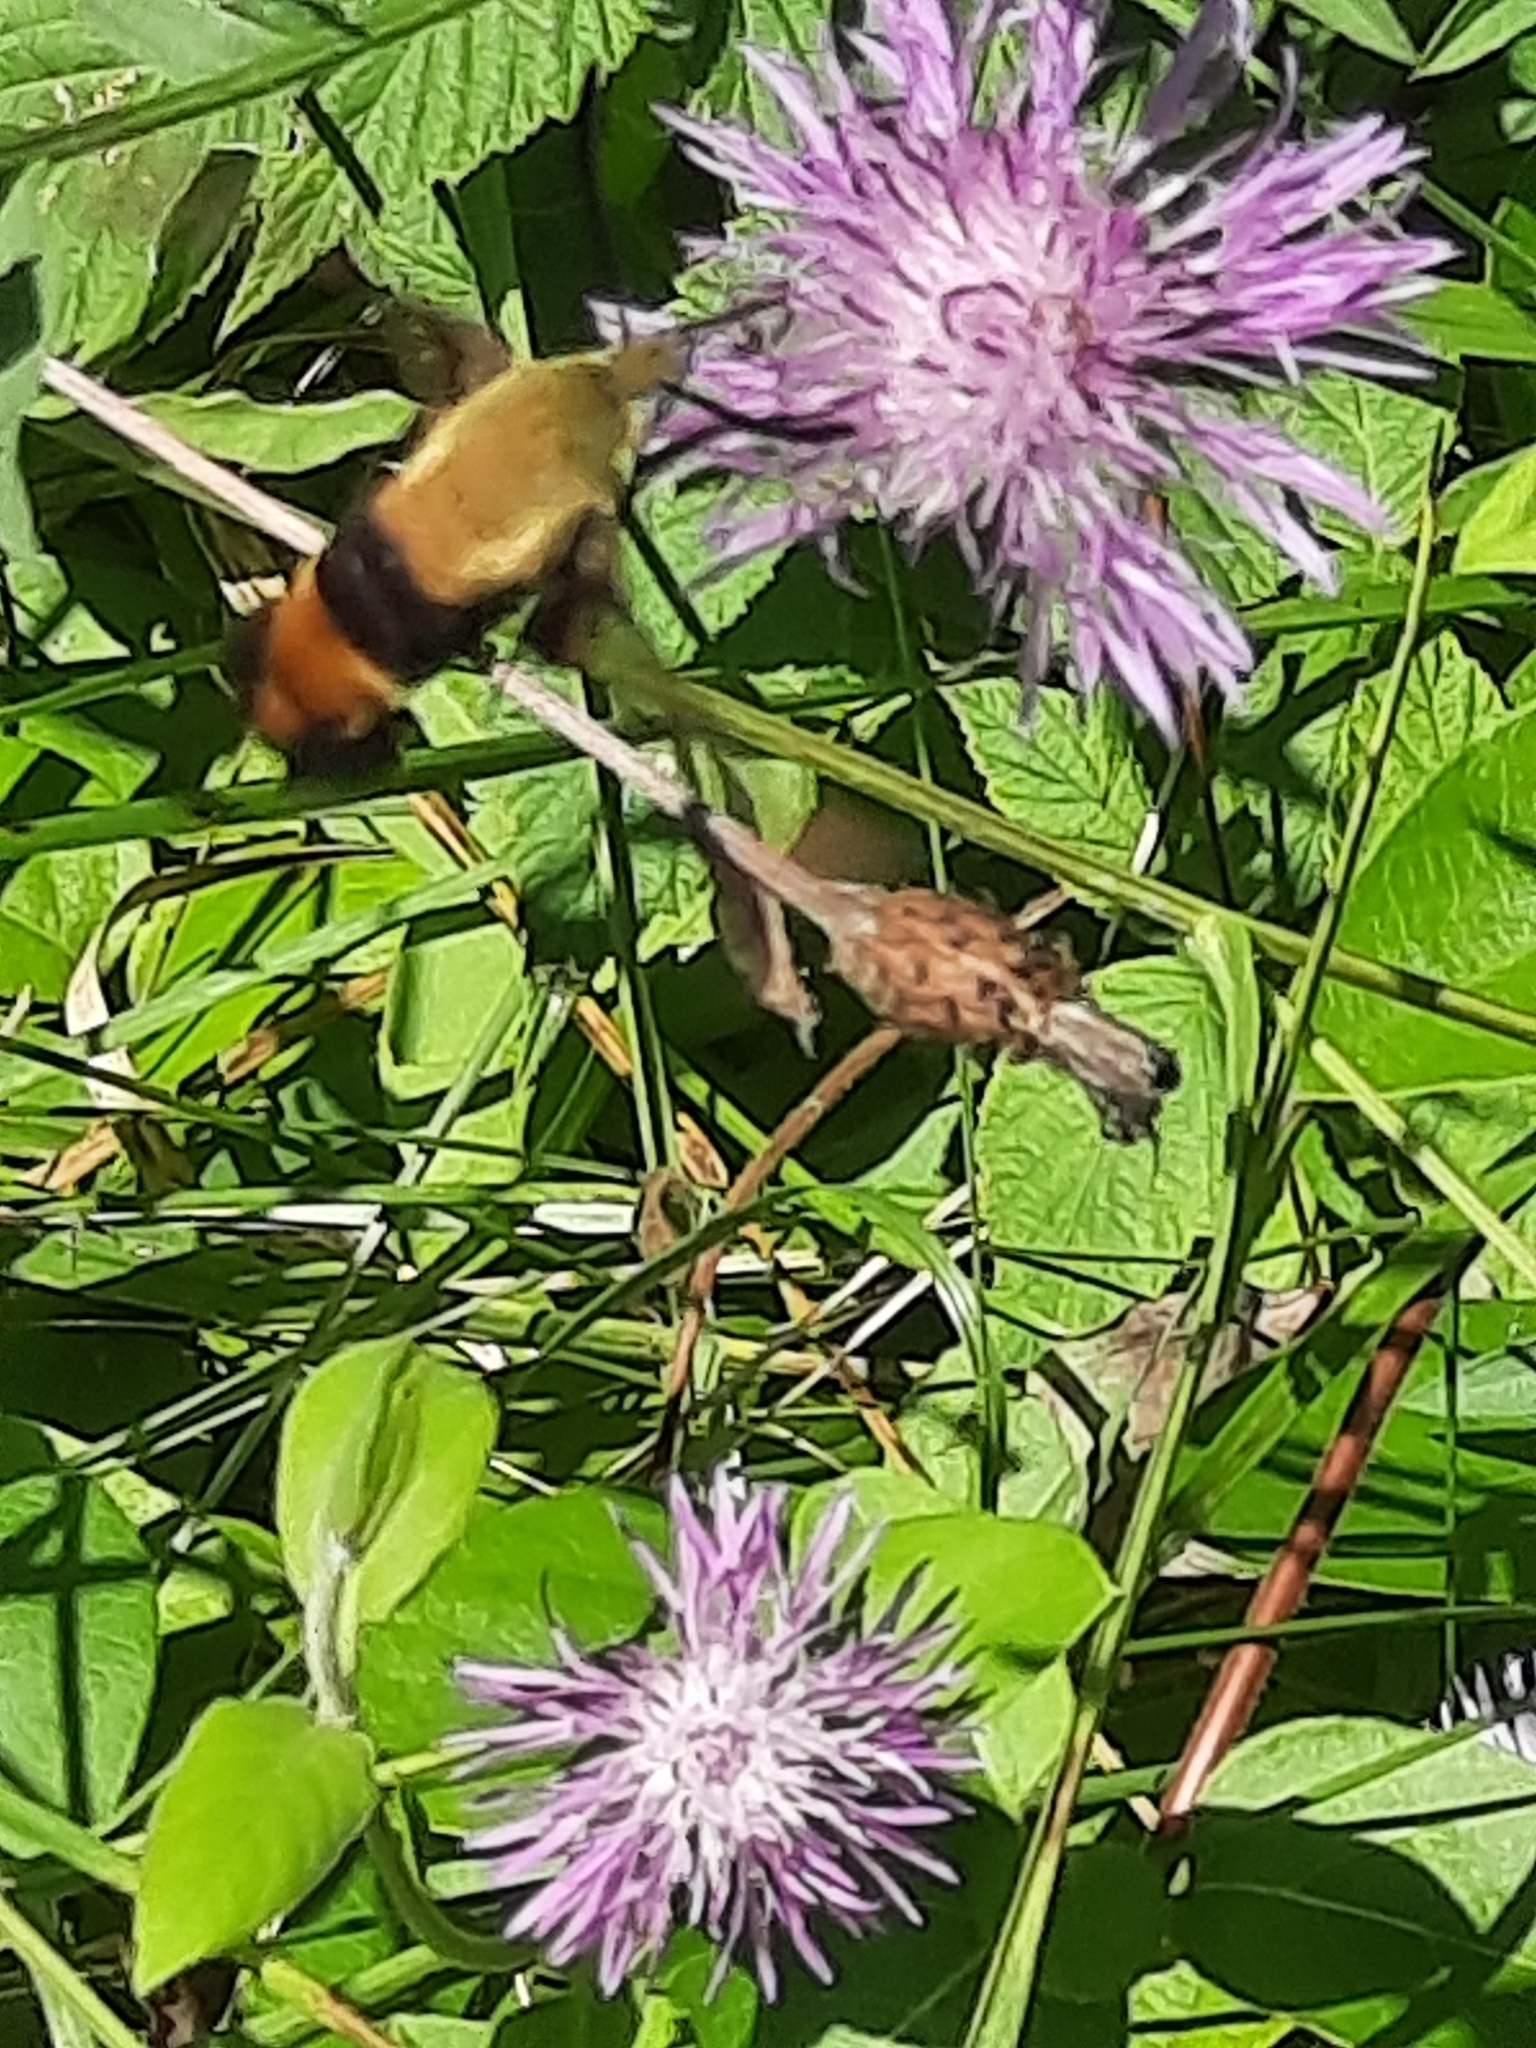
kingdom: Animalia
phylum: Arthropoda
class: Insecta
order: Lepidoptera
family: Sphingidae
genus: Hemaris
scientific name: Hemaris diffinis
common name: Bumblebee moth
